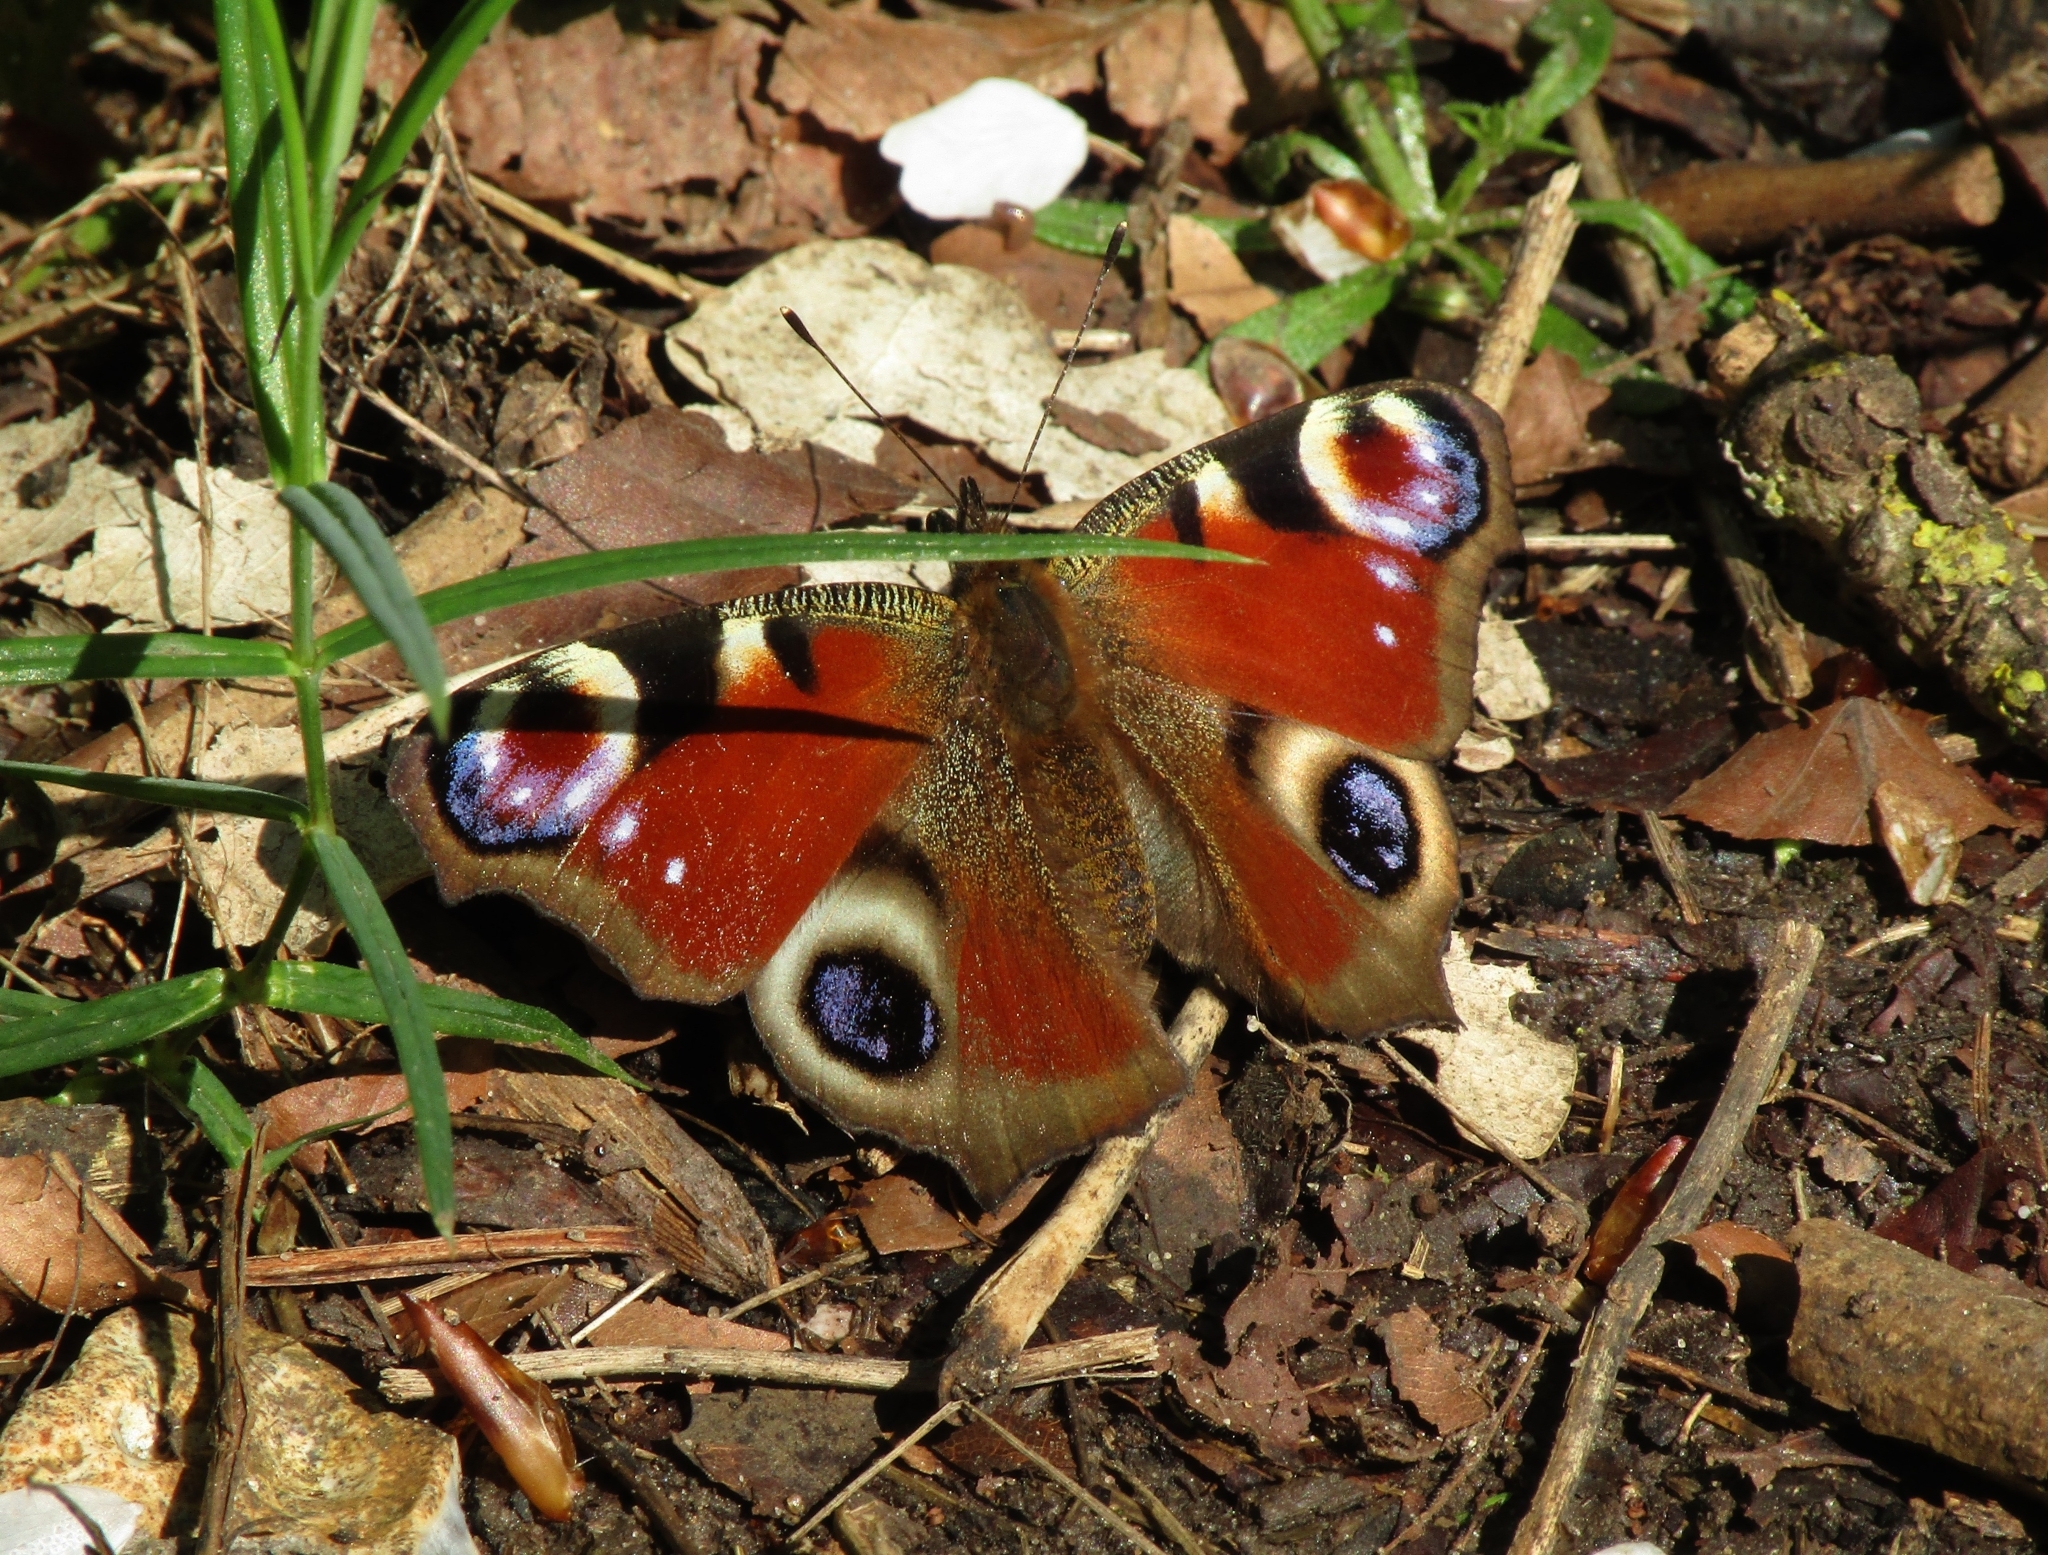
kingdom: Animalia
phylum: Arthropoda
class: Insecta
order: Lepidoptera
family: Nymphalidae
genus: Aglais
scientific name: Aglais io
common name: Peacock
